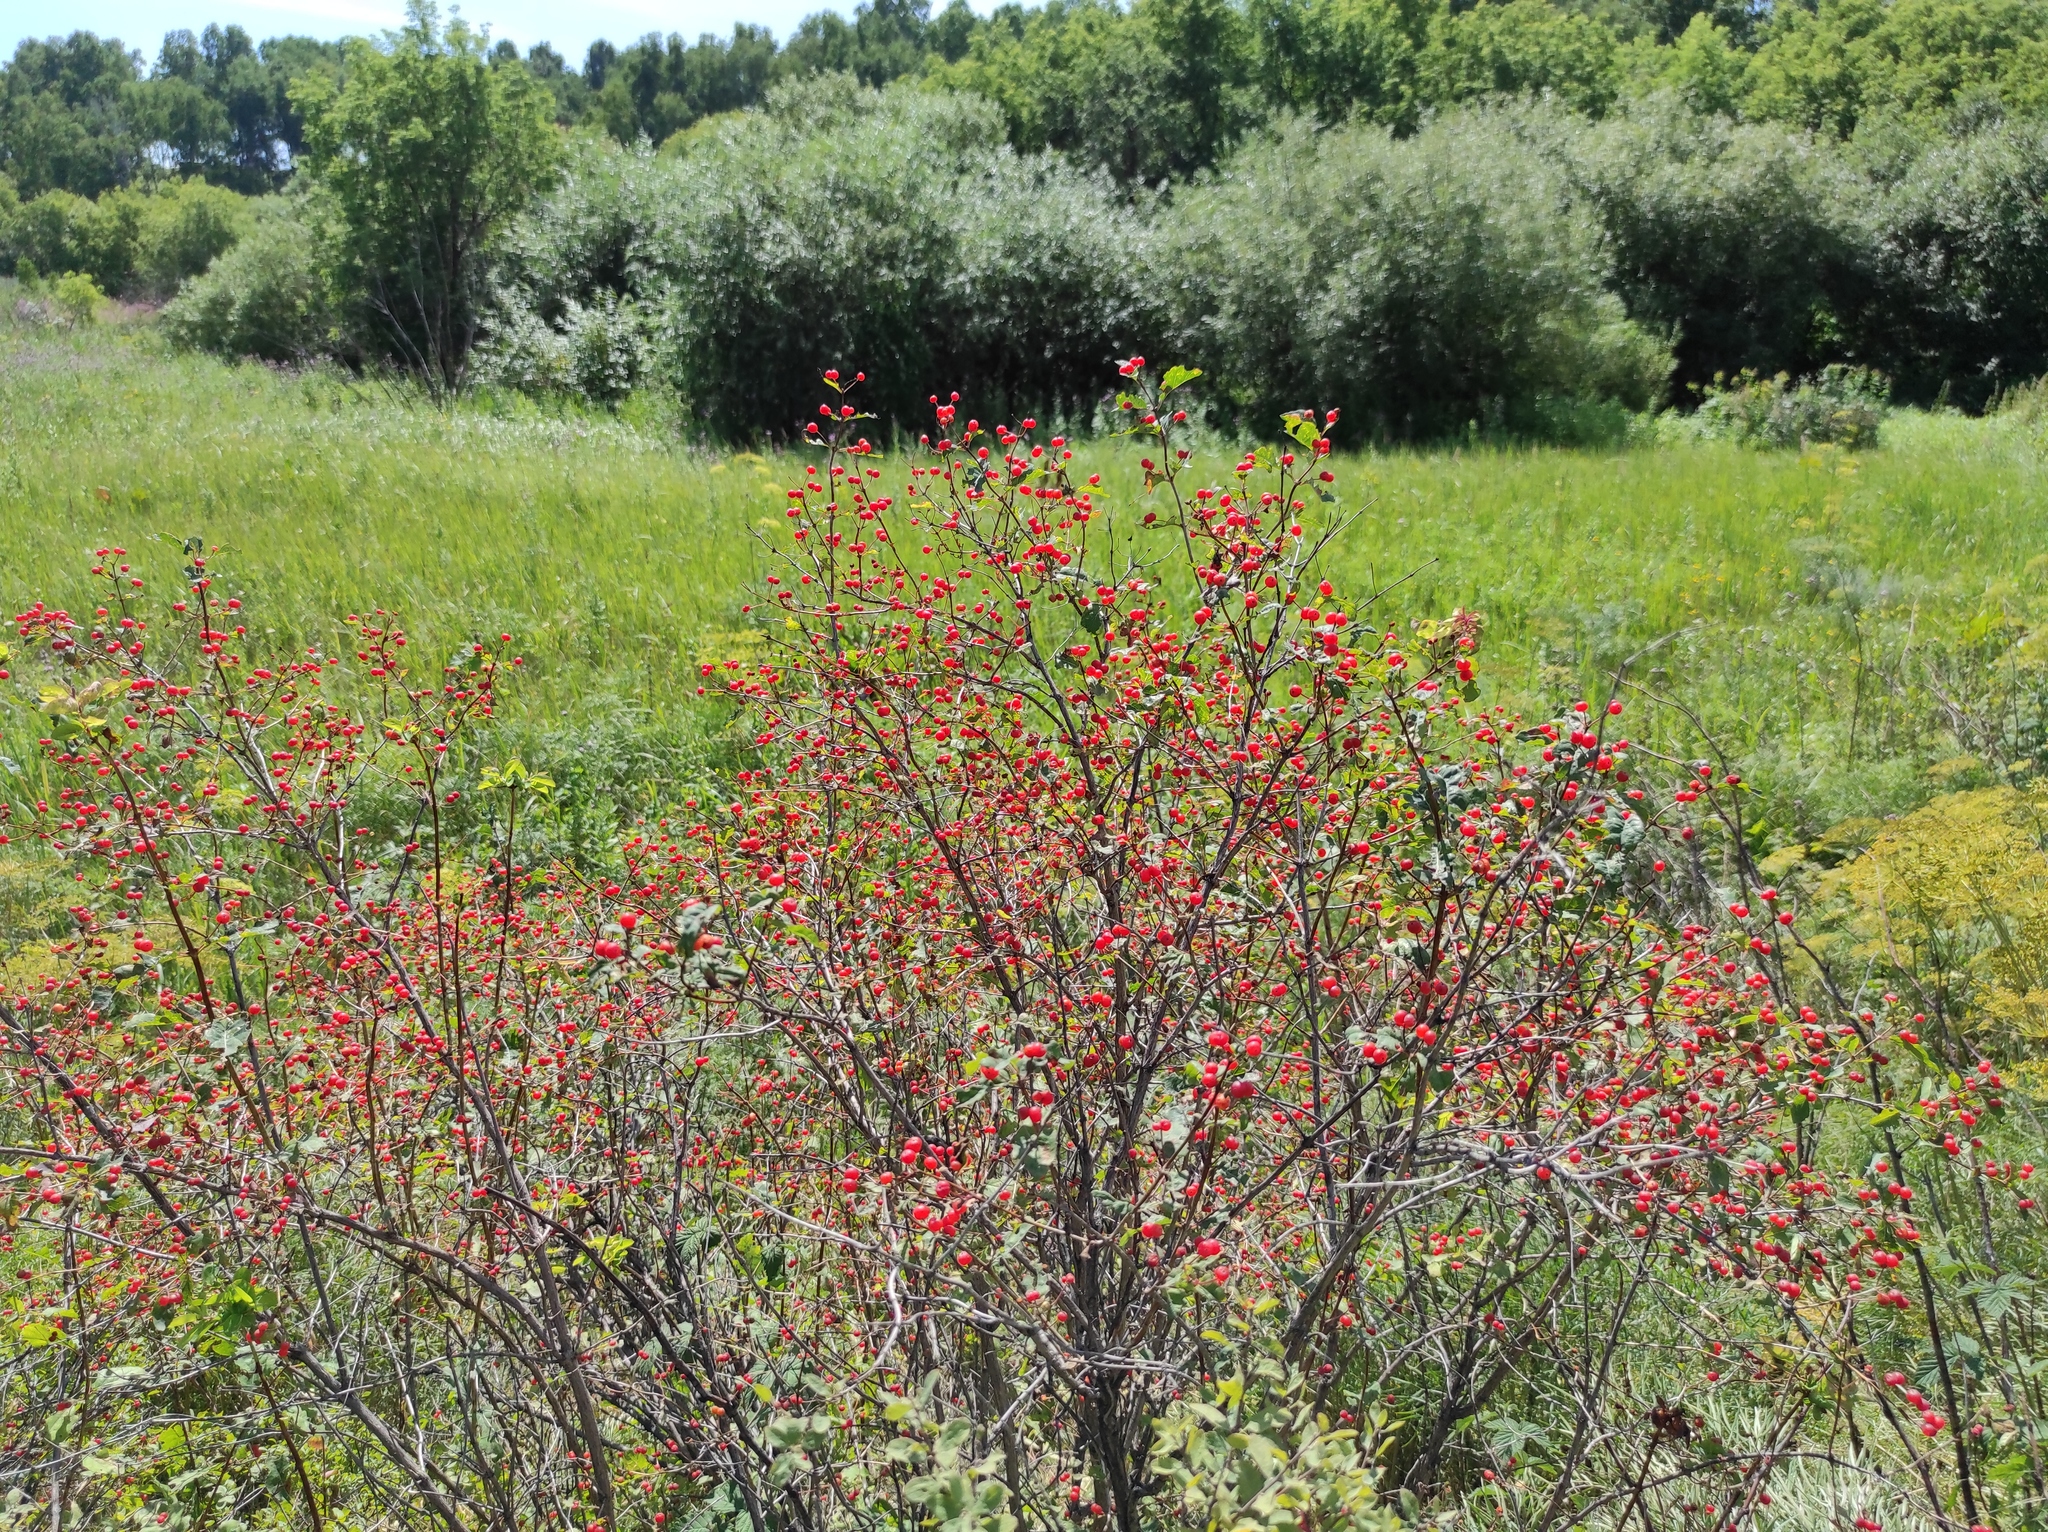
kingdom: Plantae
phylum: Tracheophyta
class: Magnoliopsida
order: Dipsacales
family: Caprifoliaceae
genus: Lonicera
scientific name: Lonicera tatarica
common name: Tatarian honeysuckle
